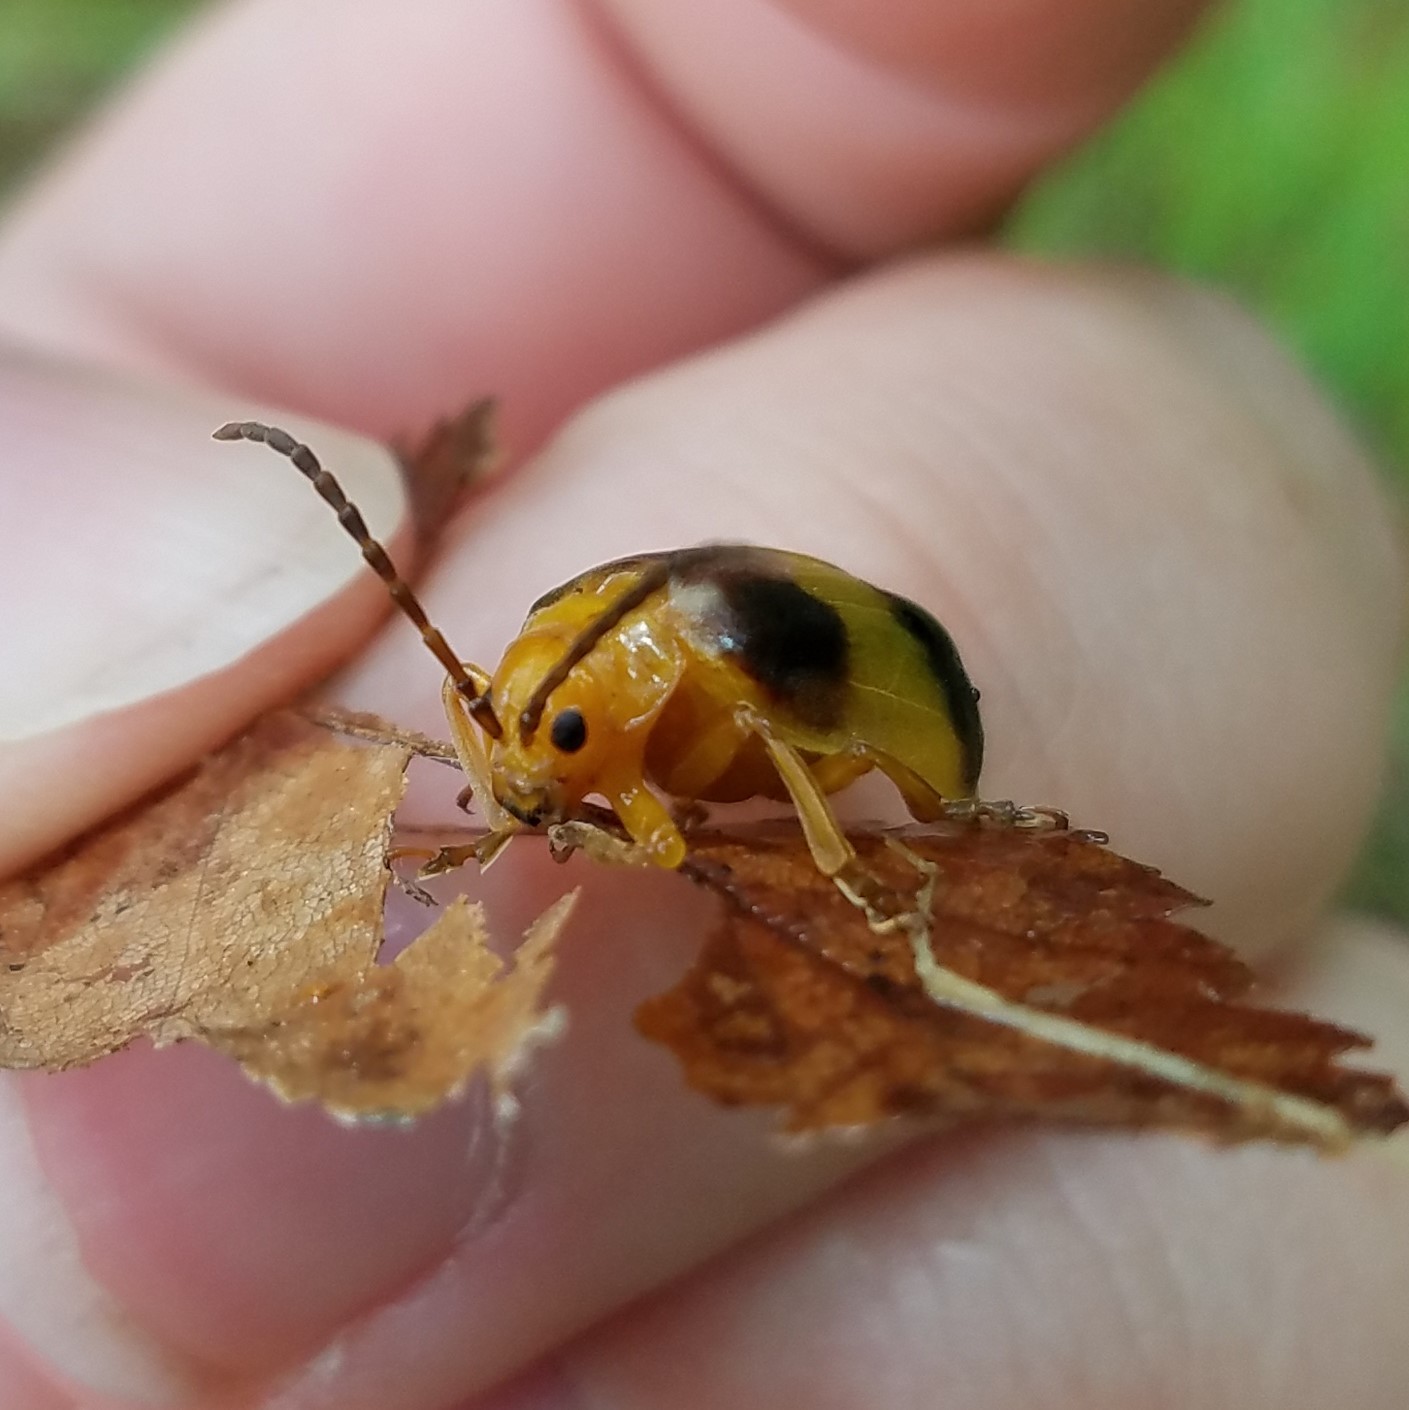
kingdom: Animalia
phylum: Arthropoda
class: Insecta
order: Coleoptera
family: Chrysomelidae
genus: Monocesta
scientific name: Monocesta coryli
